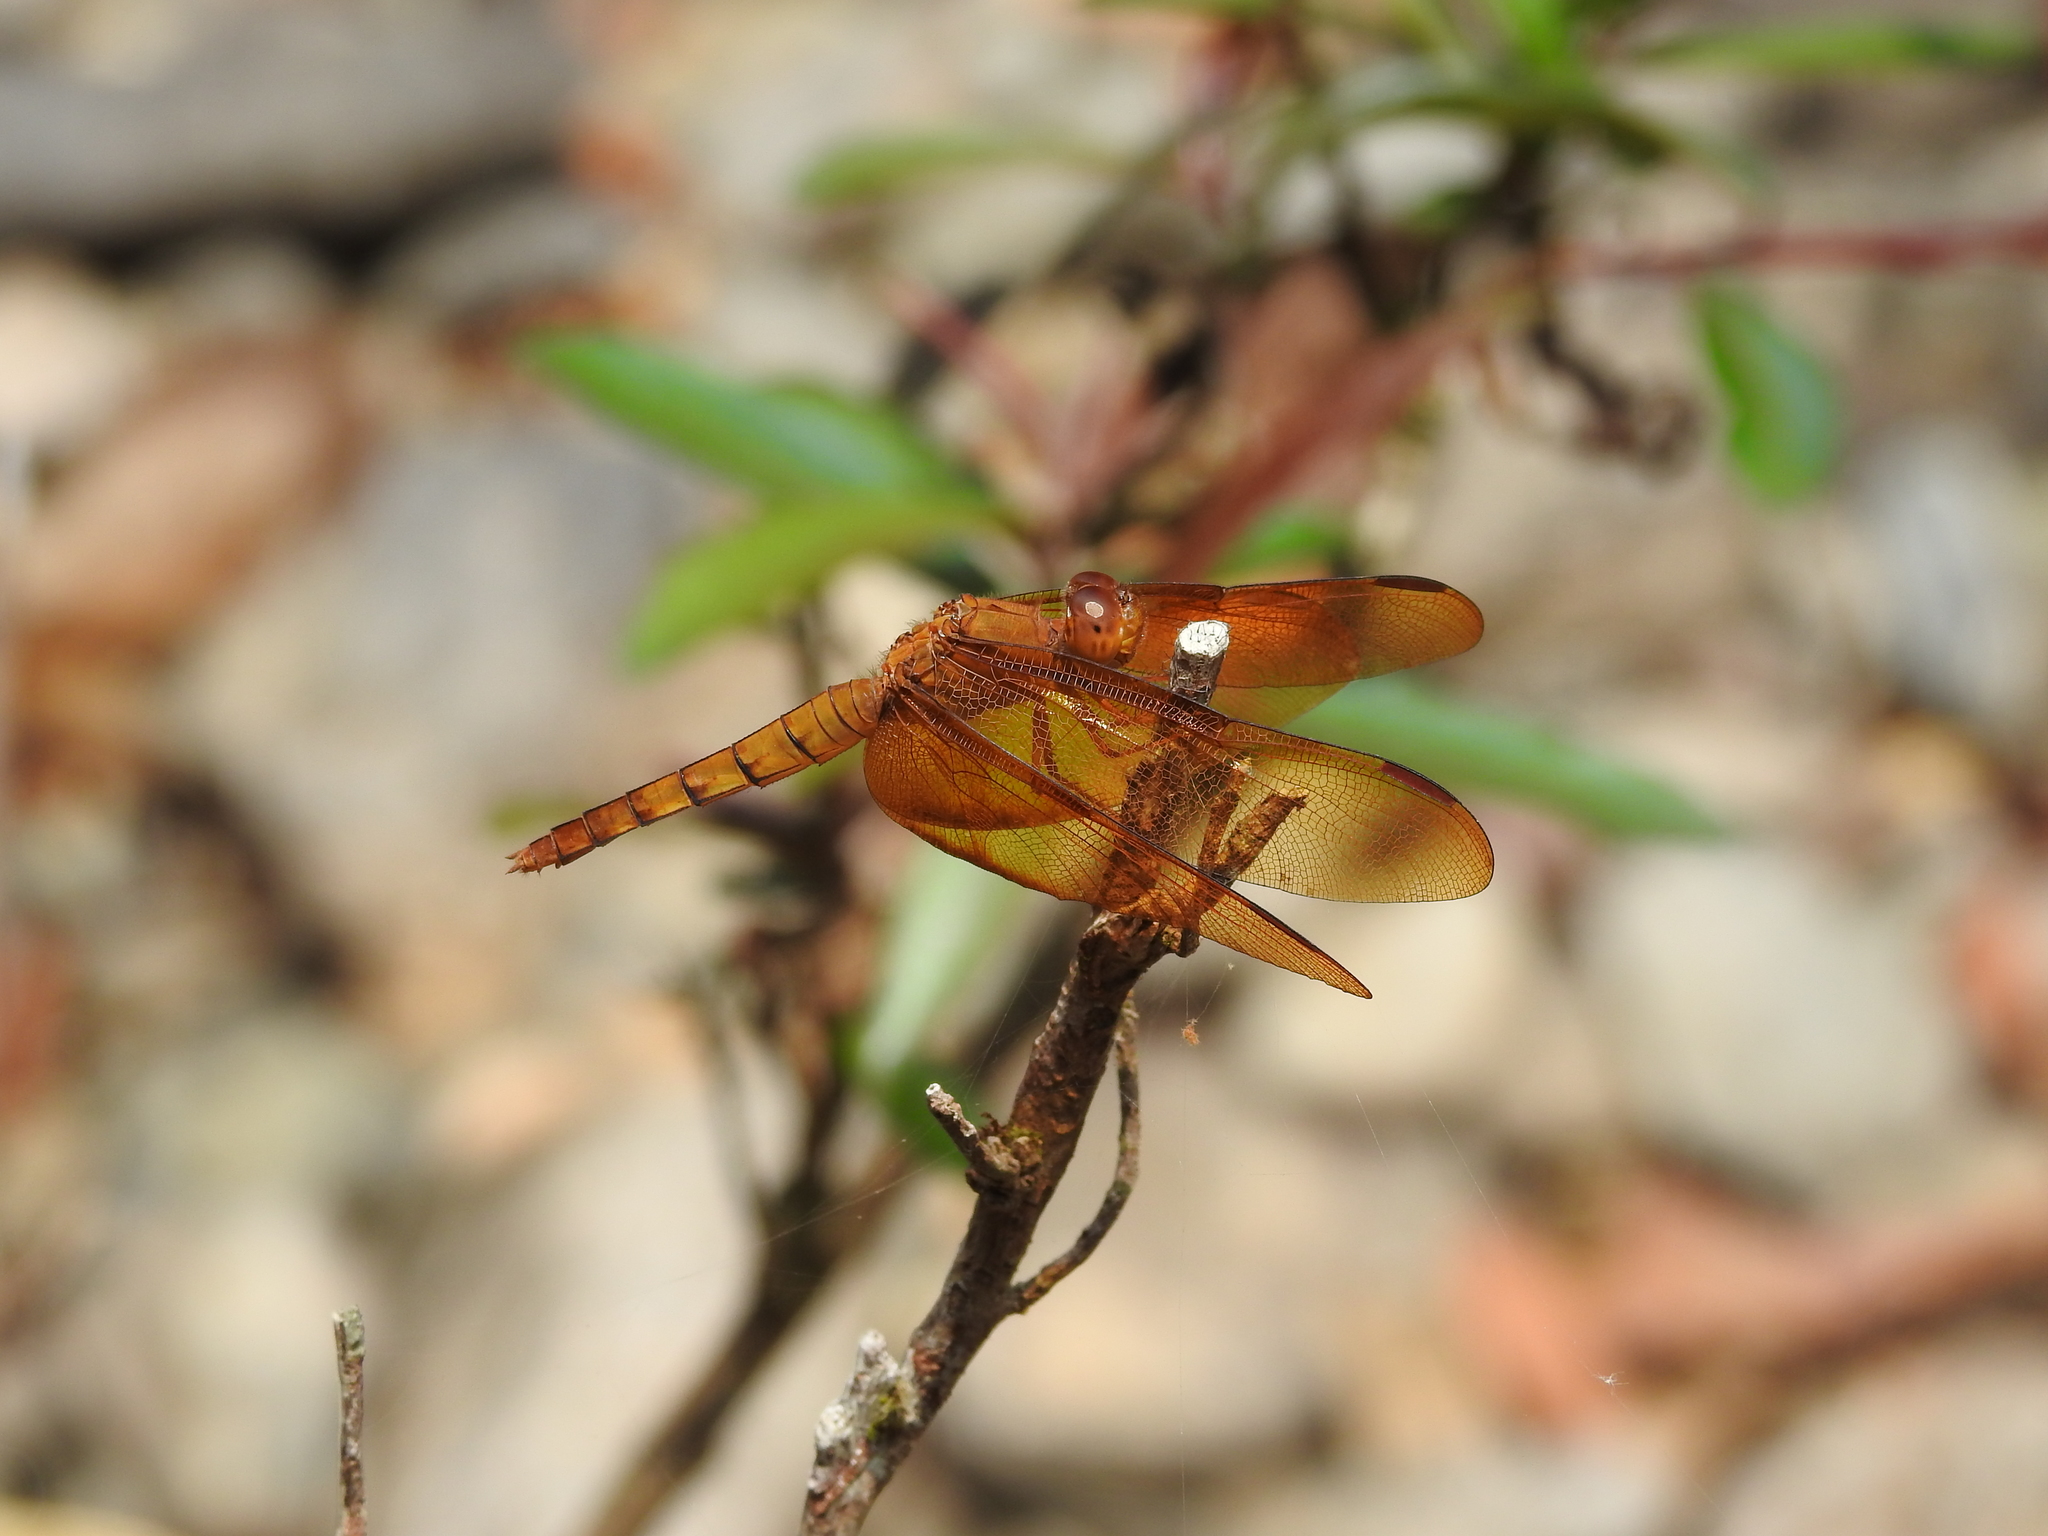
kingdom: Animalia
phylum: Arthropoda
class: Insecta
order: Odonata
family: Libellulidae
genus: Neurothemis
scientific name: Neurothemis fulvia
